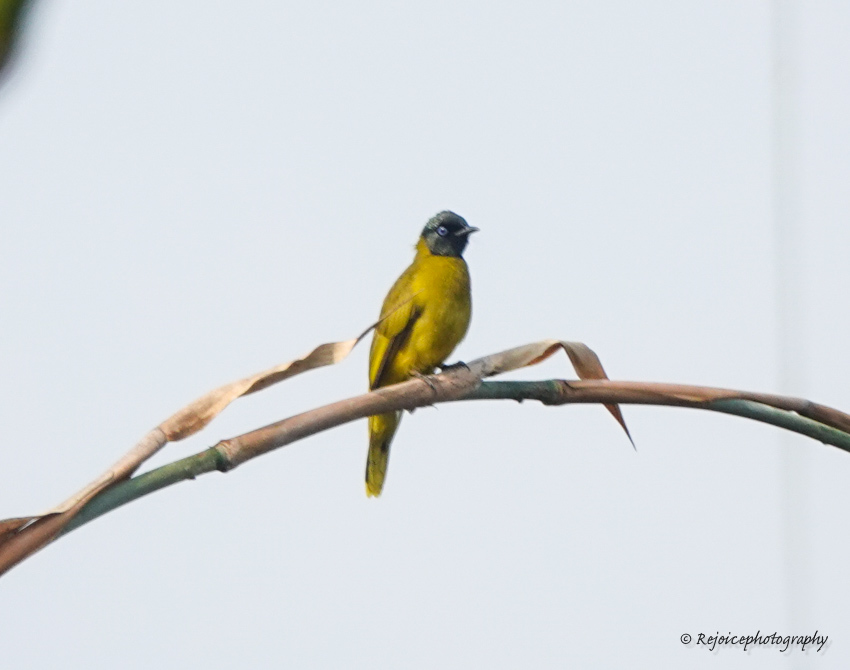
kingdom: Animalia
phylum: Chordata
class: Aves
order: Passeriformes
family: Pycnonotidae
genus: Microtarsus
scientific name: Microtarsus
